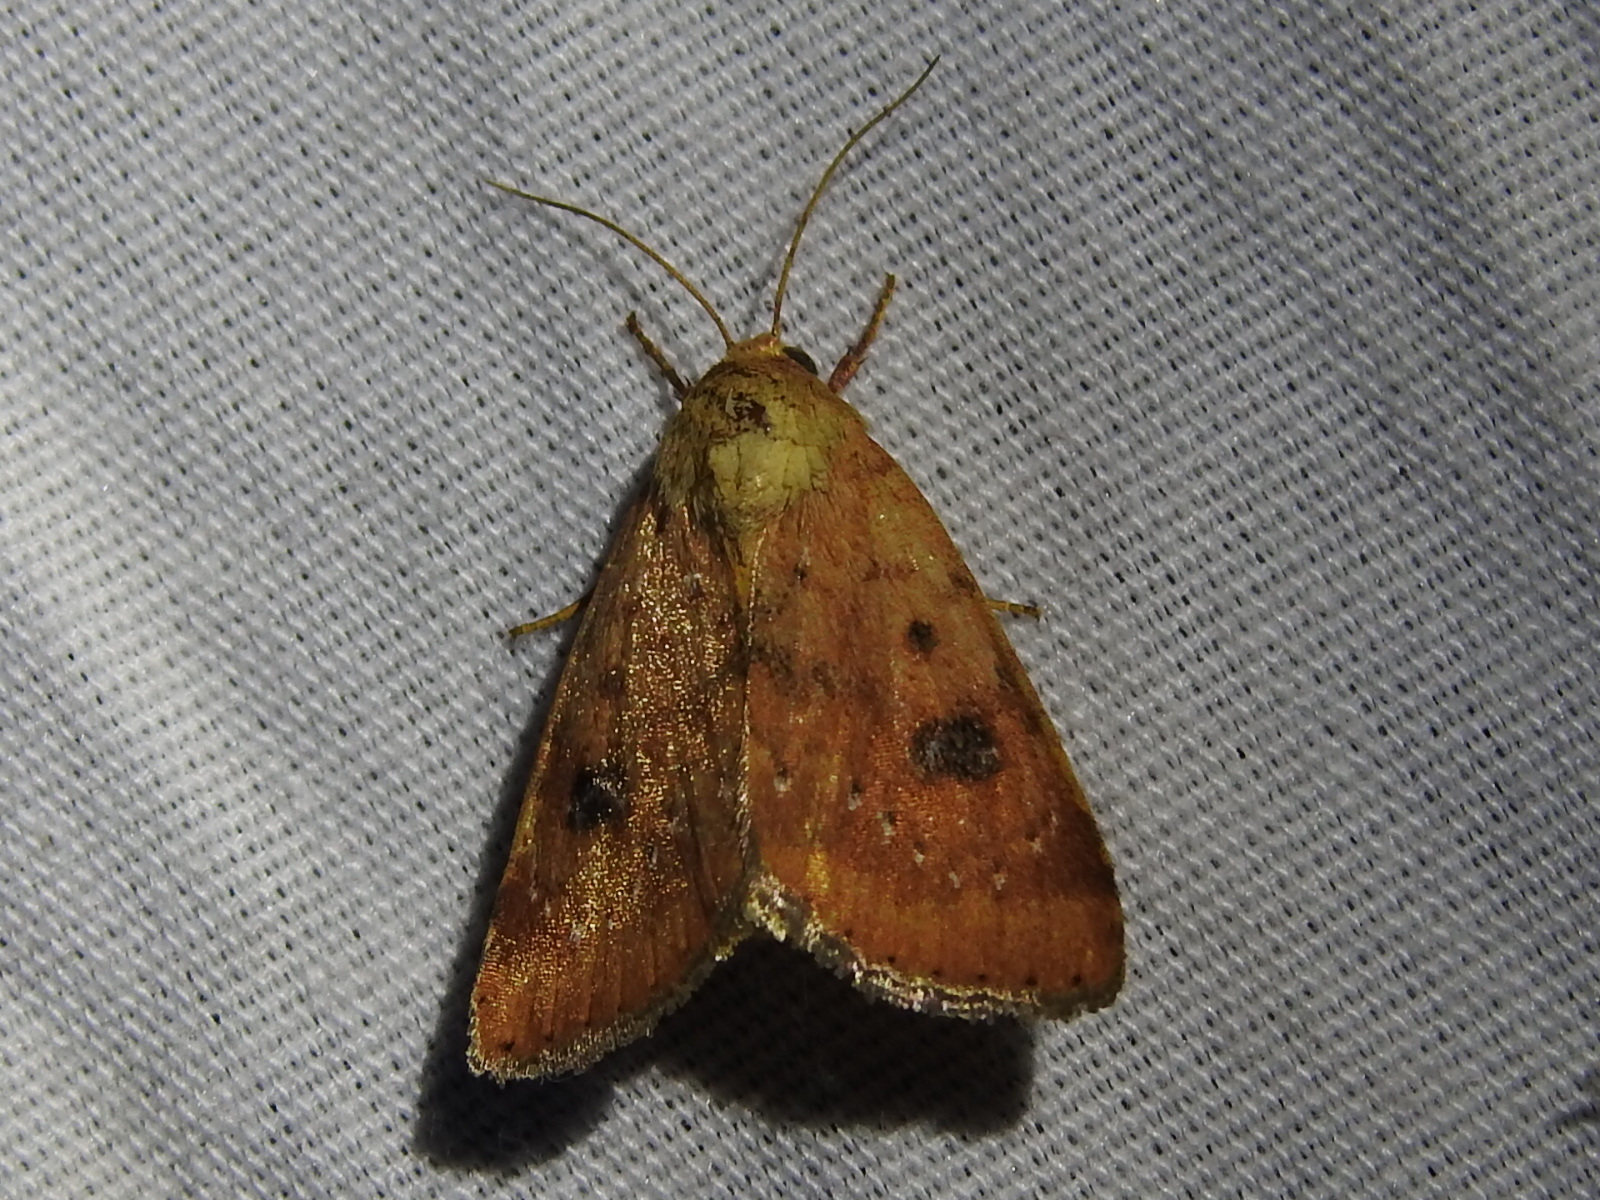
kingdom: Animalia
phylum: Arthropoda
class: Insecta
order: Lepidoptera
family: Noctuidae
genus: Heliocheilus
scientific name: Heliocheilus lupata
